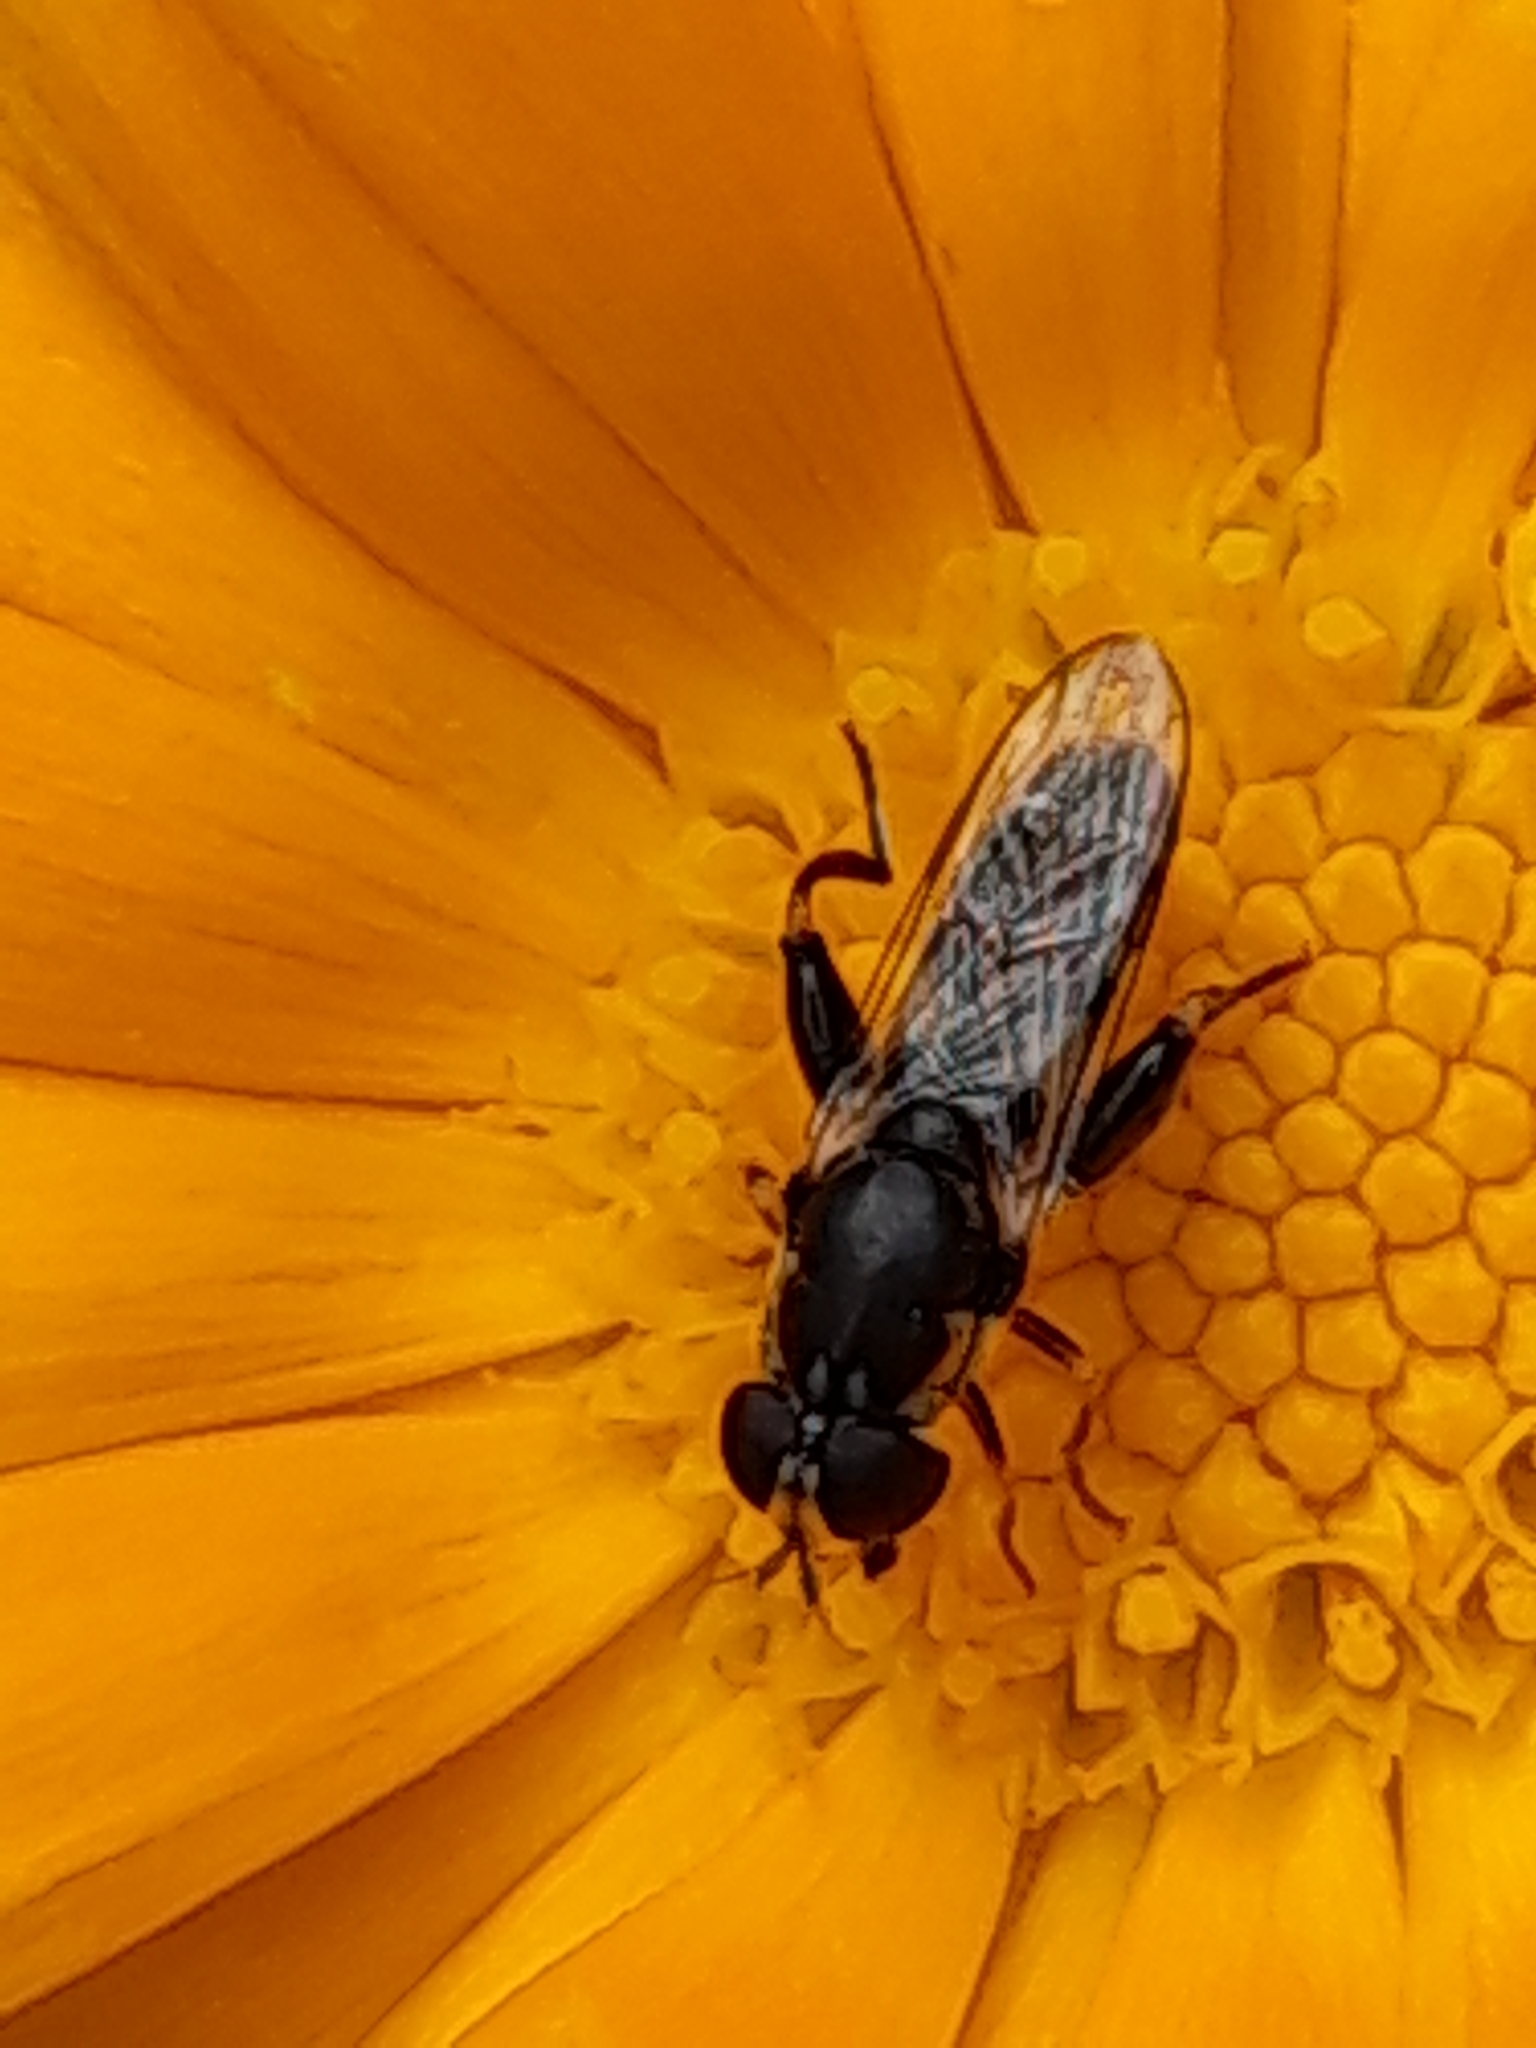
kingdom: Animalia
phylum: Arthropoda
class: Insecta
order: Diptera
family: Syrphidae
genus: Syritta
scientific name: Syritta pipiens
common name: Hover fly
